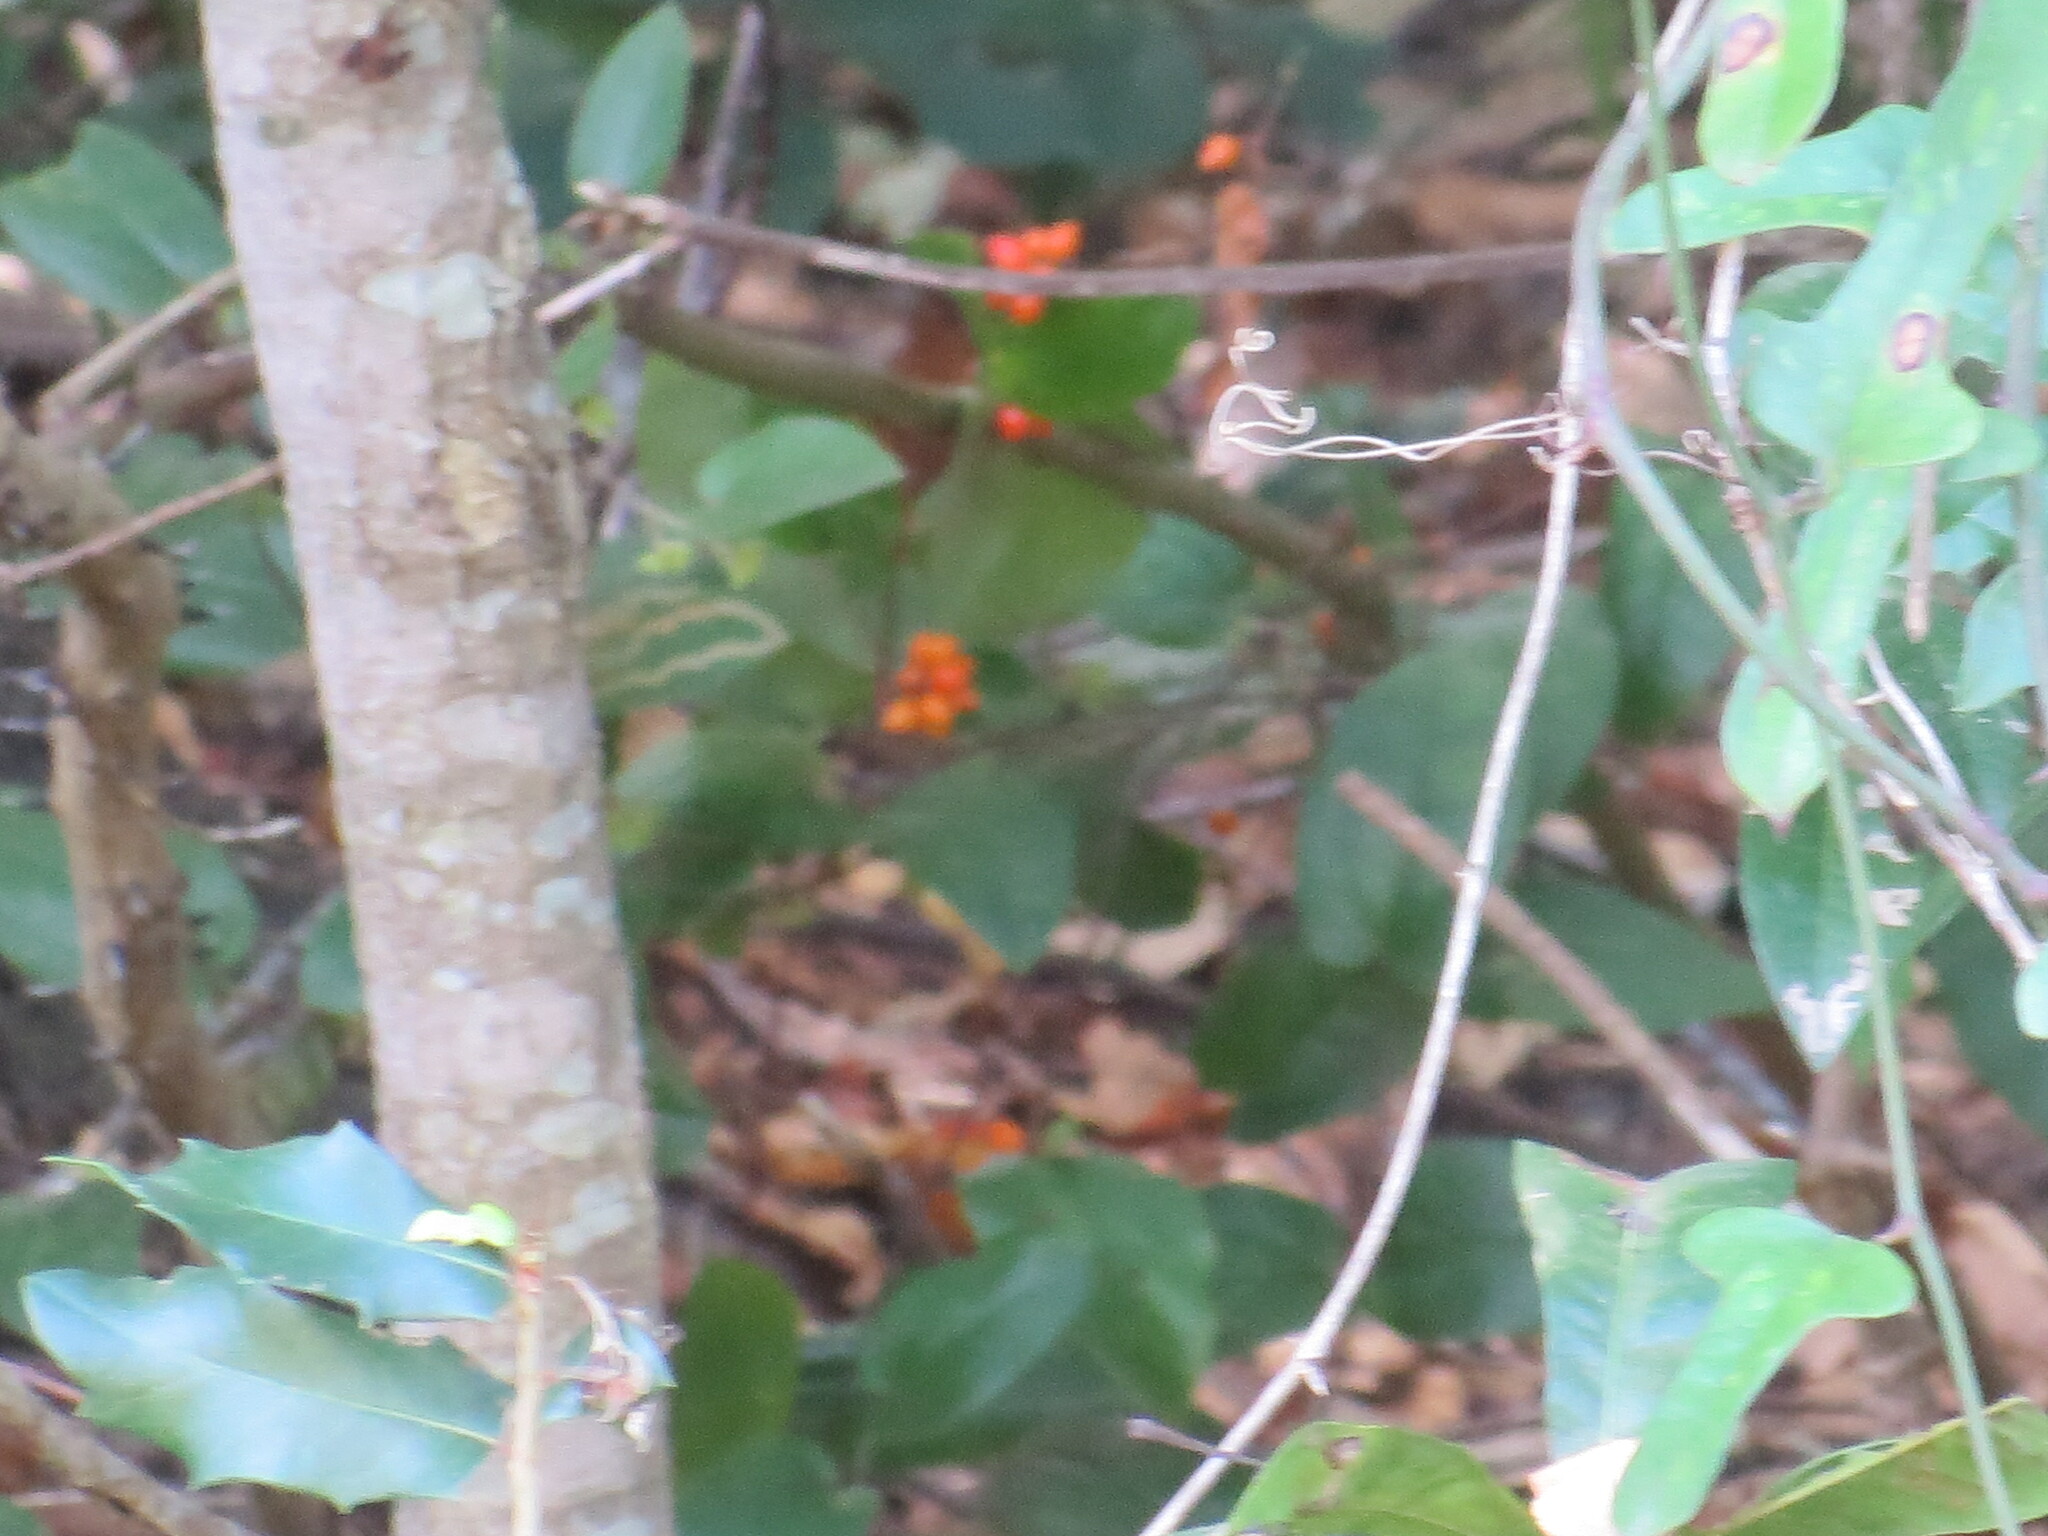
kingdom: Plantae
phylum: Tracheophyta
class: Liliopsida
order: Liliales
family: Smilacaceae
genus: Smilax
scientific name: Smilax pumila
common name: Sarsaparilla-vine
